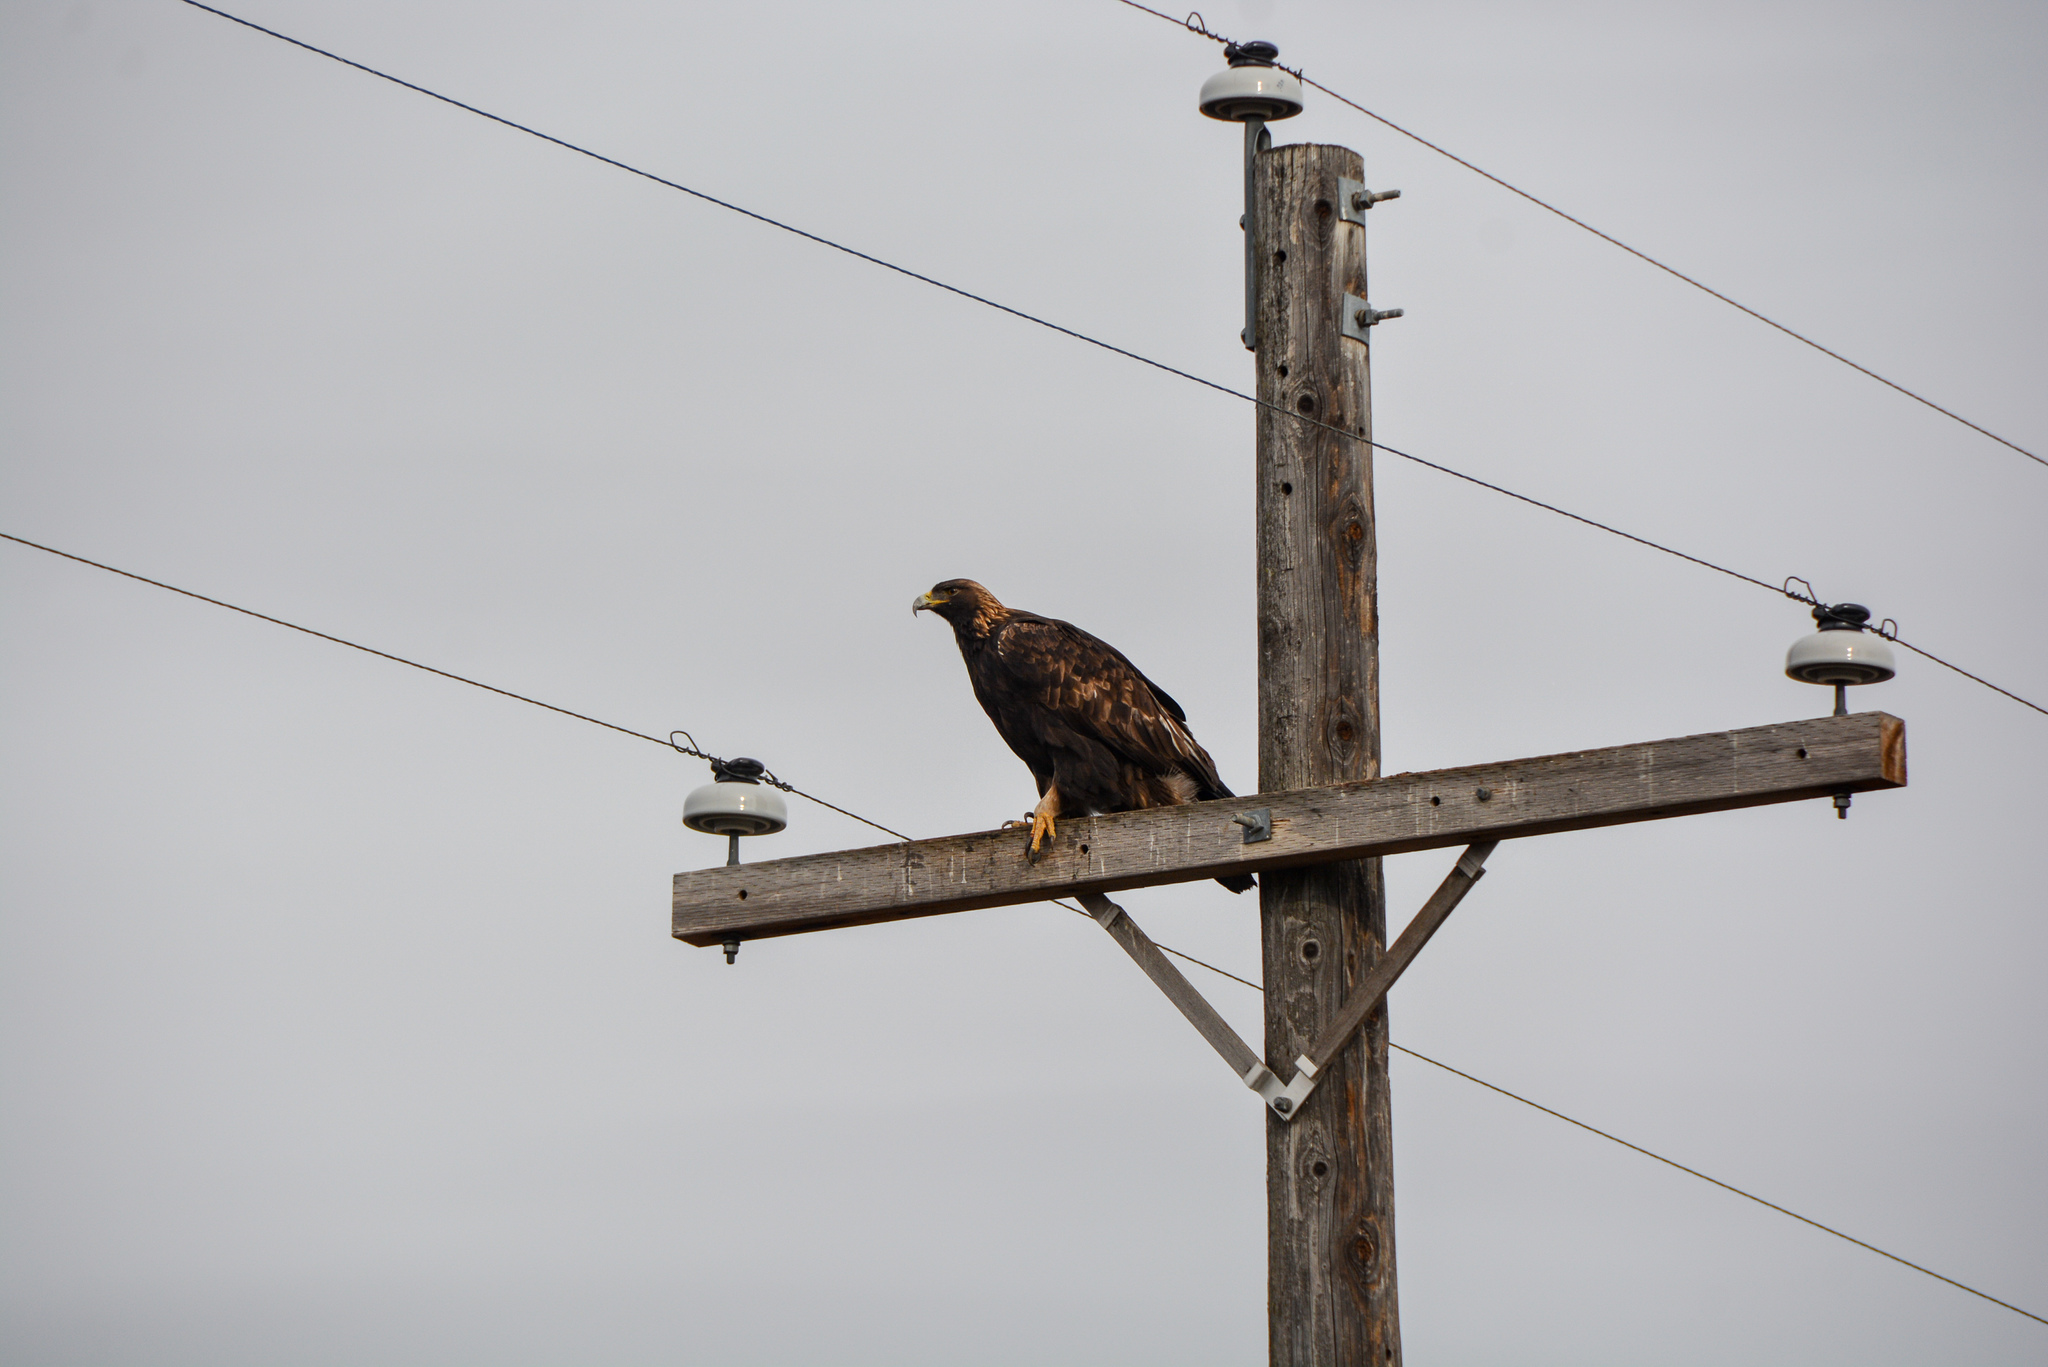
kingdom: Animalia
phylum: Chordata
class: Aves
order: Accipitriformes
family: Accipitridae
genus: Aquila
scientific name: Aquila chrysaetos
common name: Golden eagle
